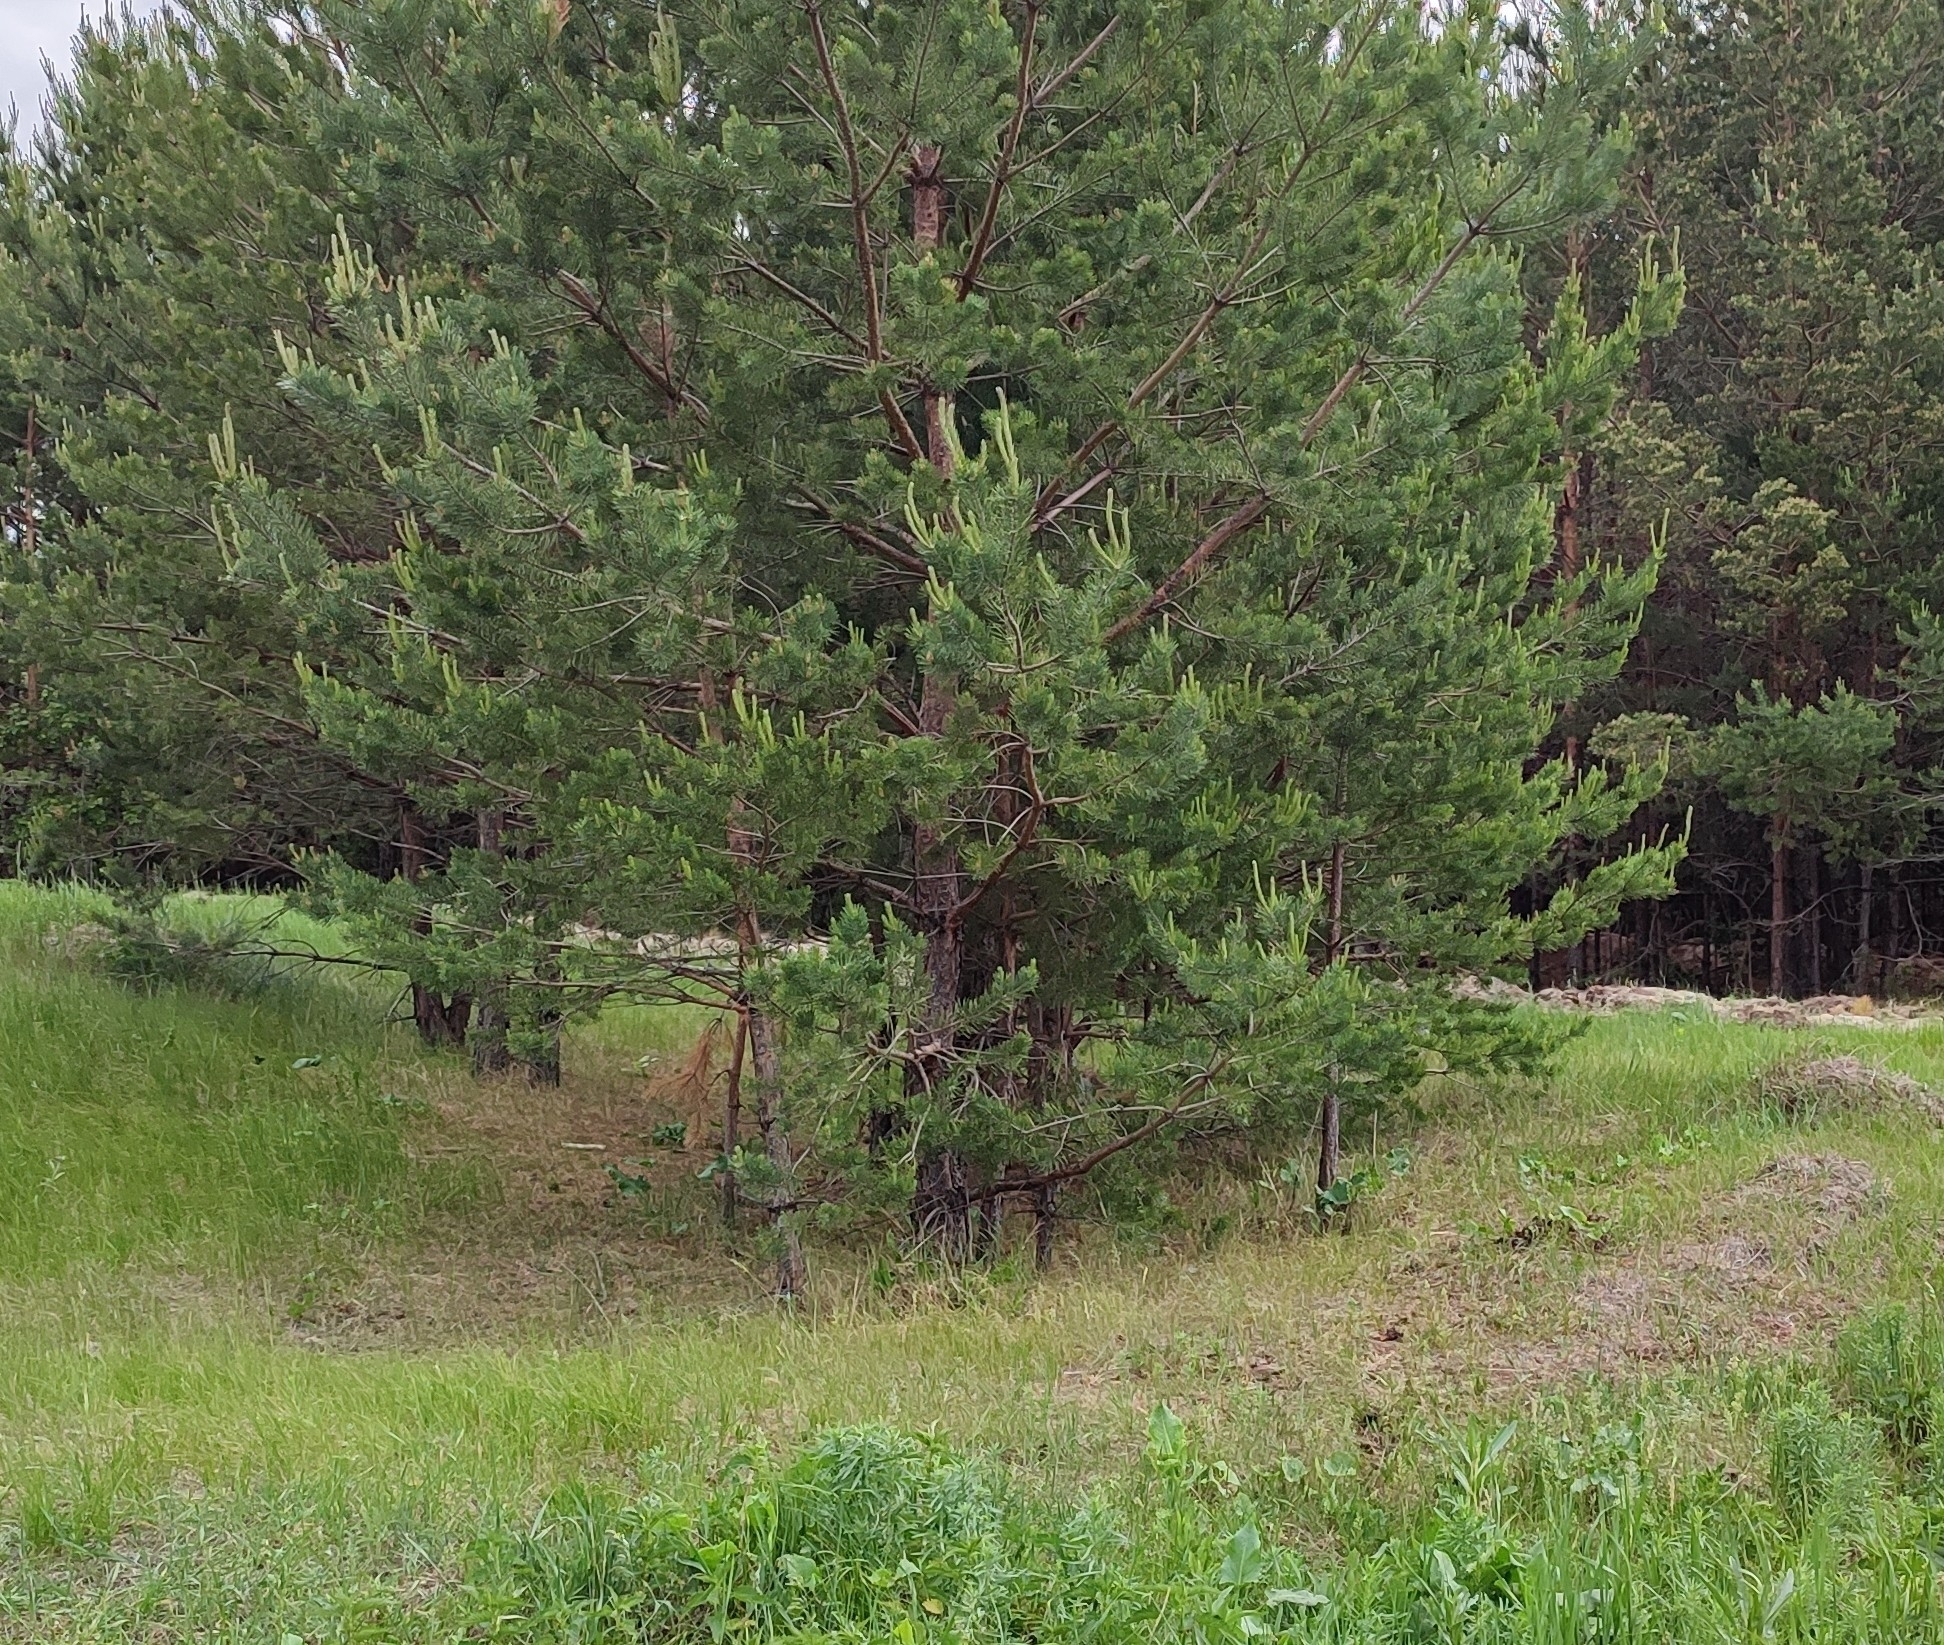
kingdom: Plantae
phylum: Tracheophyta
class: Pinopsida
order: Pinales
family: Pinaceae
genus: Pinus
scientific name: Pinus sylvestris
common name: Scots pine
